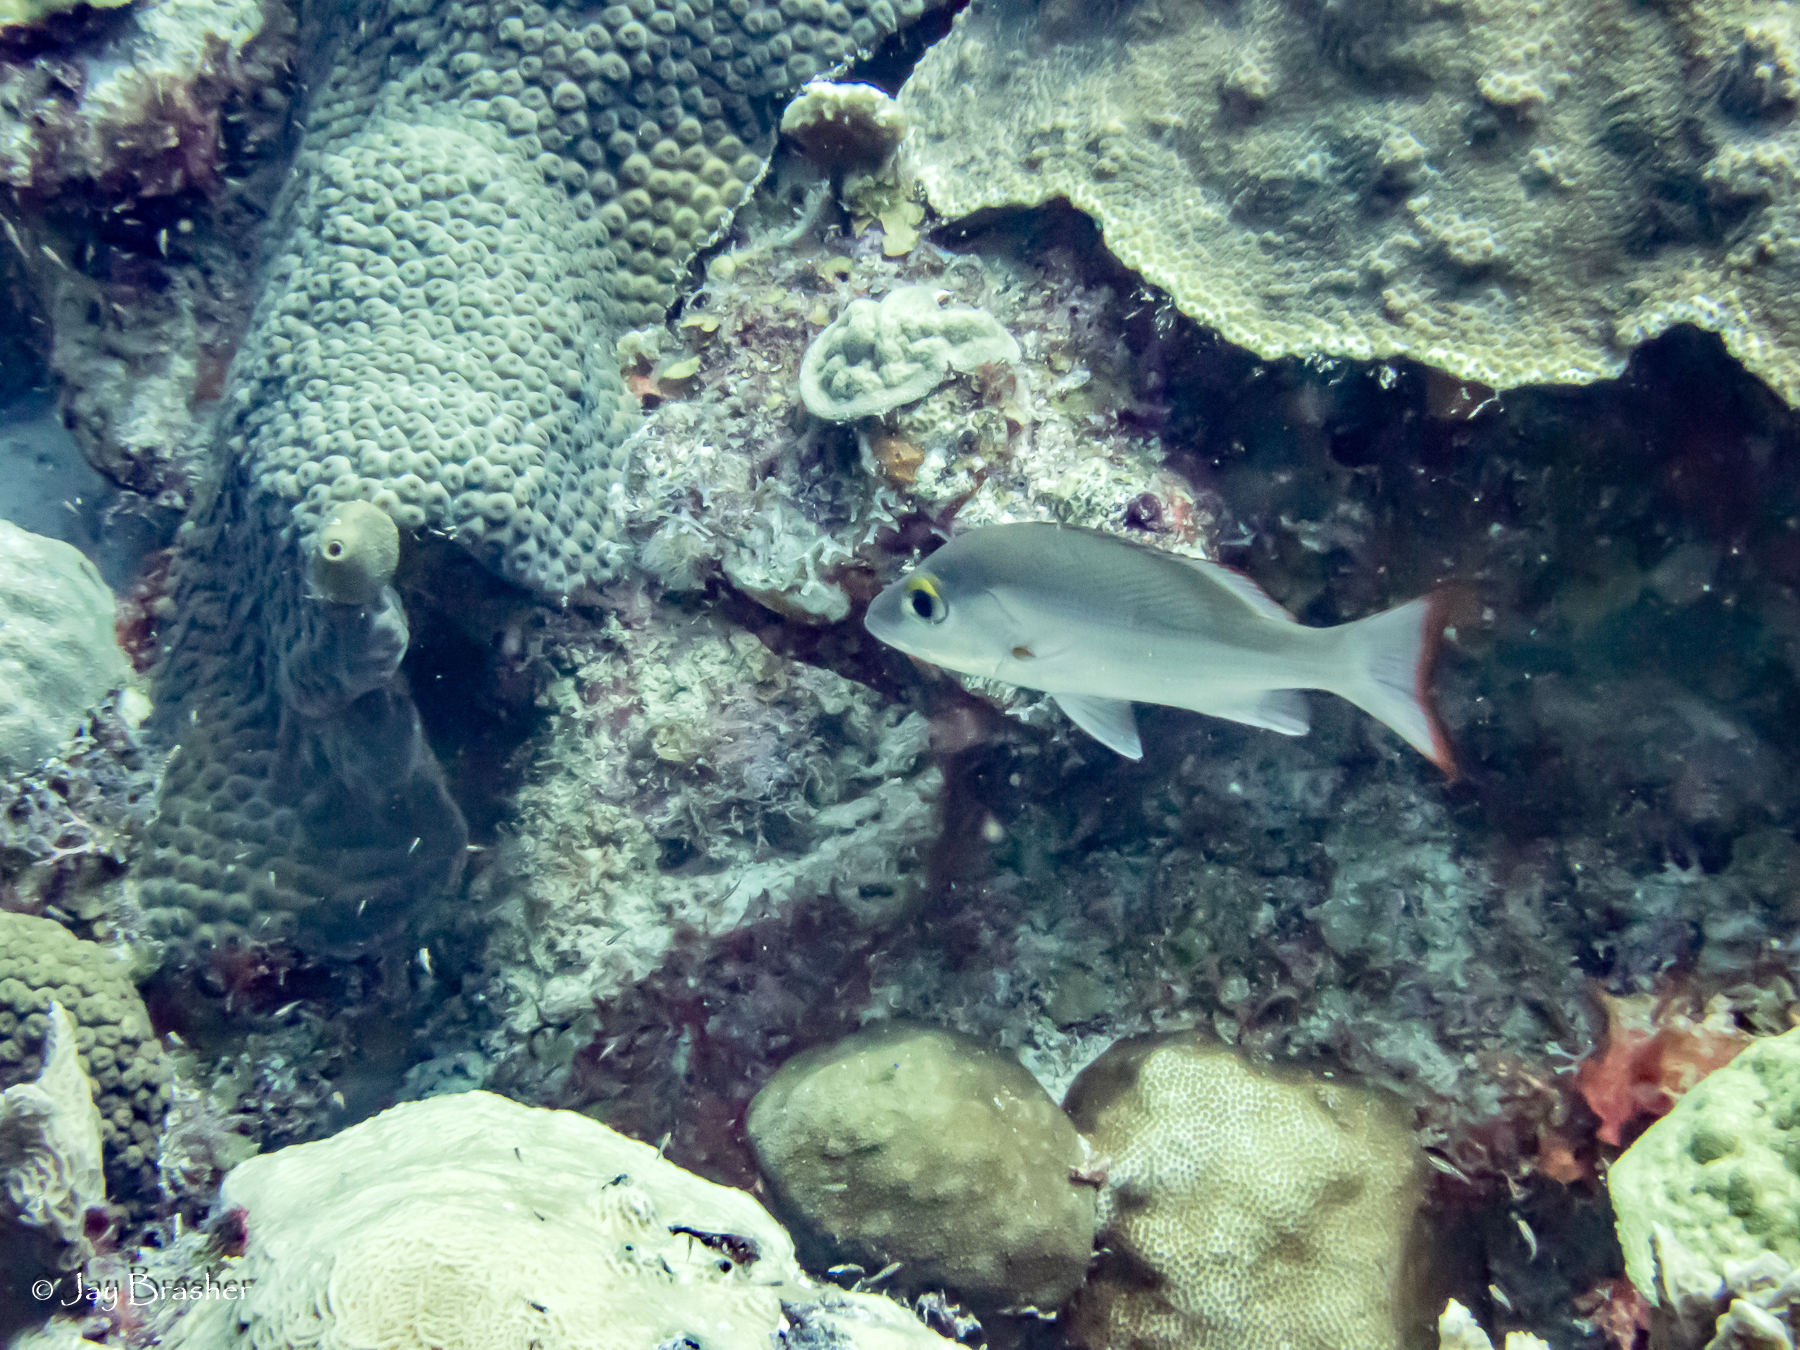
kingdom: Animalia
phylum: Chordata
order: Perciformes
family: Lutjanidae
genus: Lutjanus
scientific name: Lutjanus mahogoni
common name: Spot snapper
